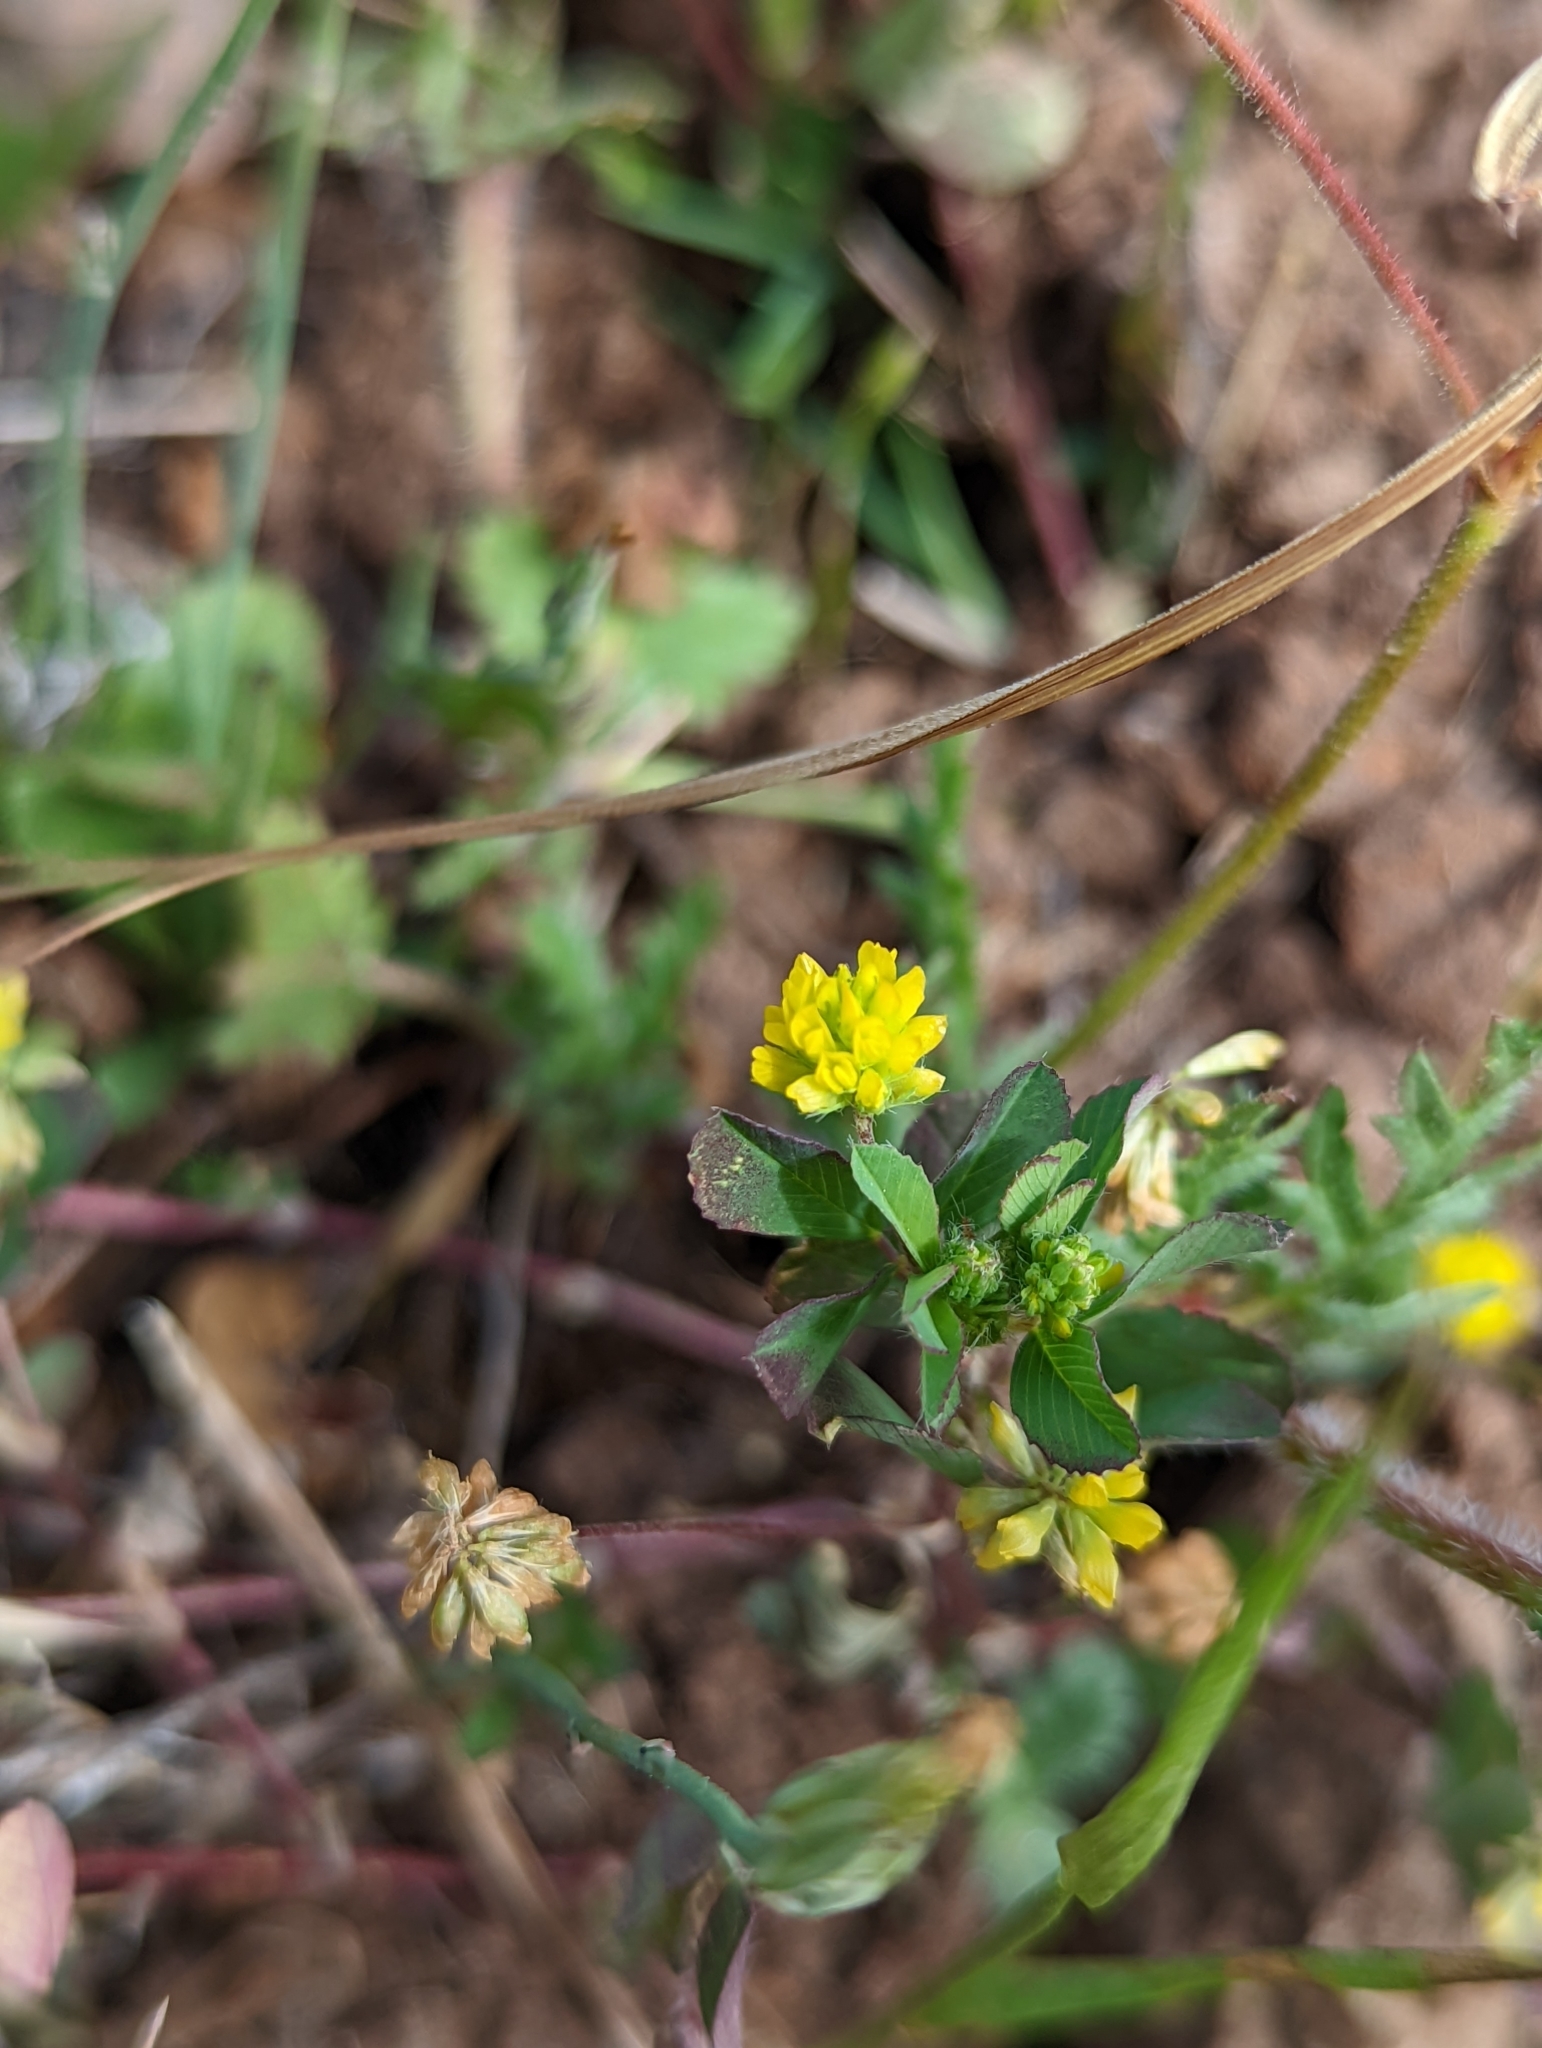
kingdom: Plantae
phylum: Tracheophyta
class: Magnoliopsida
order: Fabales
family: Fabaceae
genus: Trifolium
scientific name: Trifolium dubium
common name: Suckling clover
